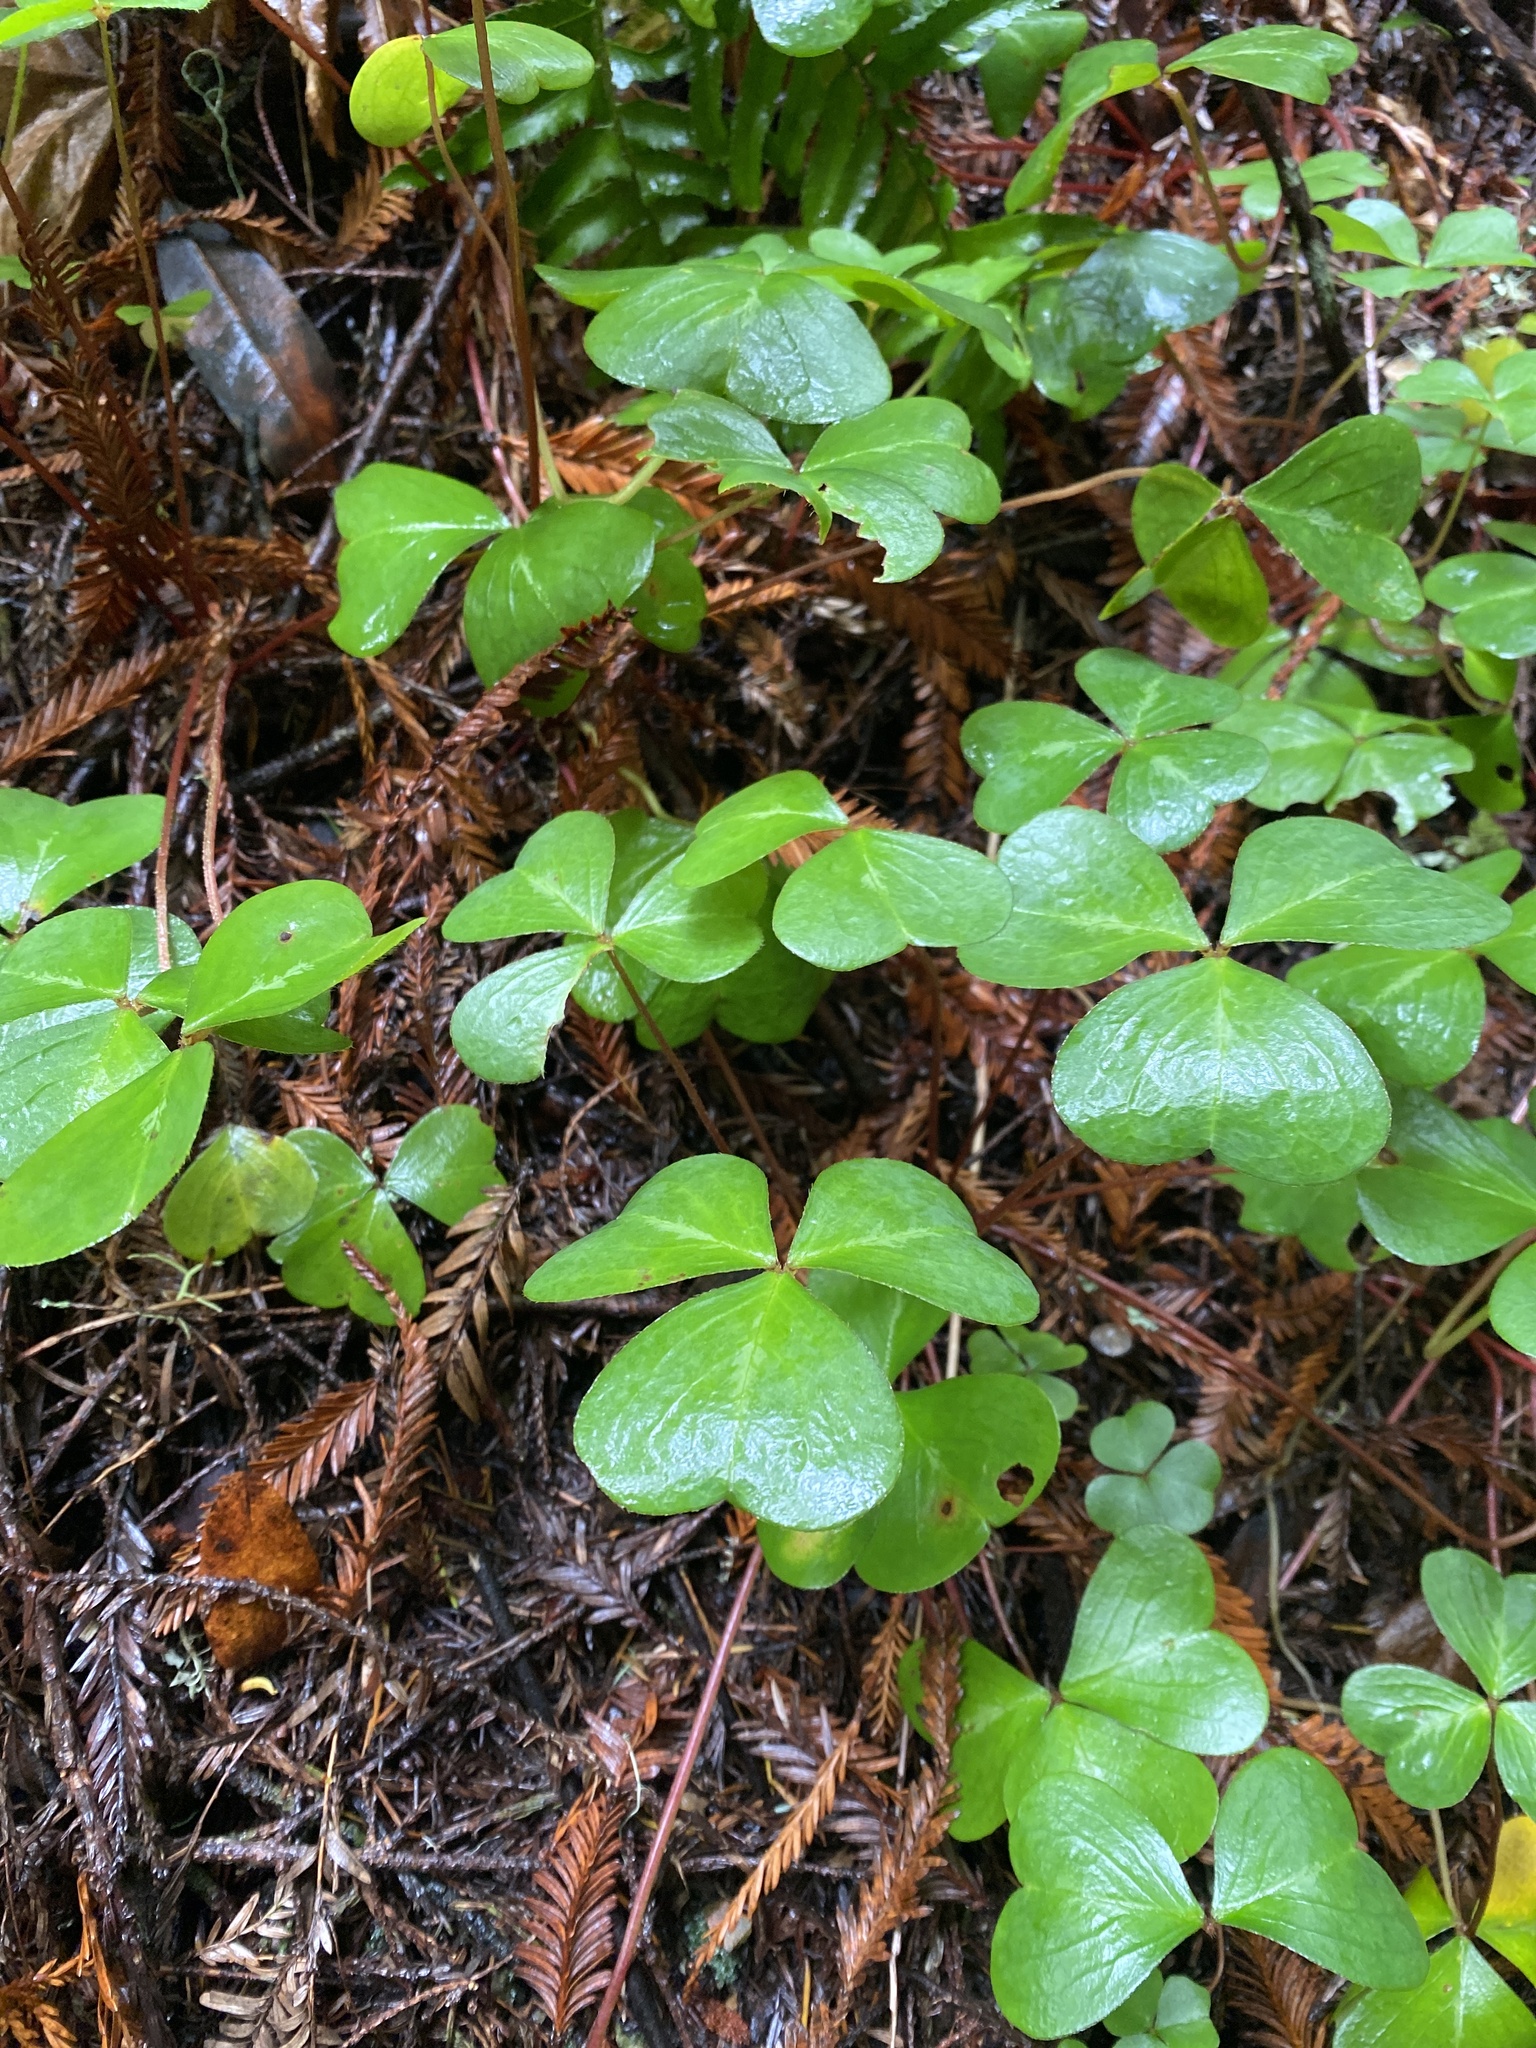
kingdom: Plantae
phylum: Tracheophyta
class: Magnoliopsida
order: Oxalidales
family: Oxalidaceae
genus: Oxalis
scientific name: Oxalis oregana
